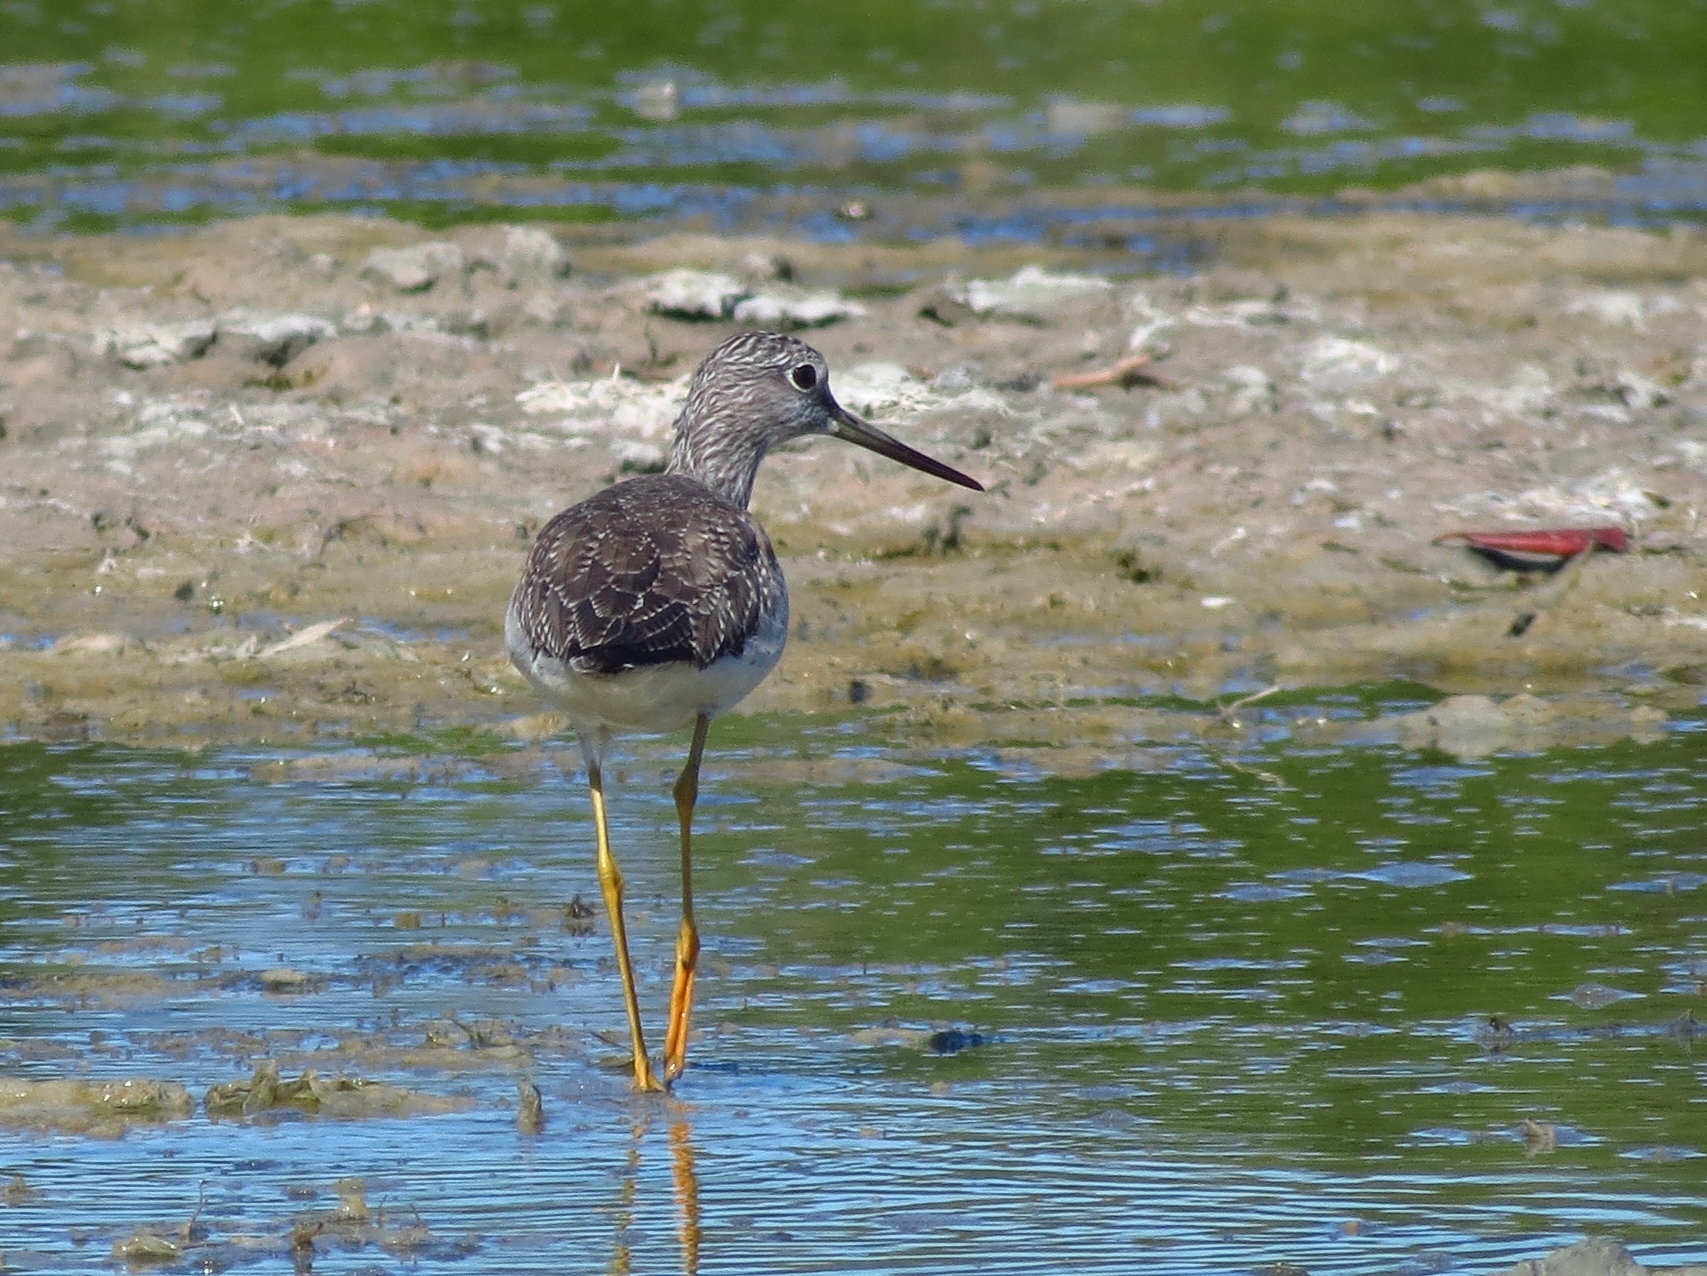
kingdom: Animalia
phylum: Chordata
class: Aves
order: Charadriiformes
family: Scolopacidae
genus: Tringa
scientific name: Tringa melanoleuca
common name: Greater yellowlegs
